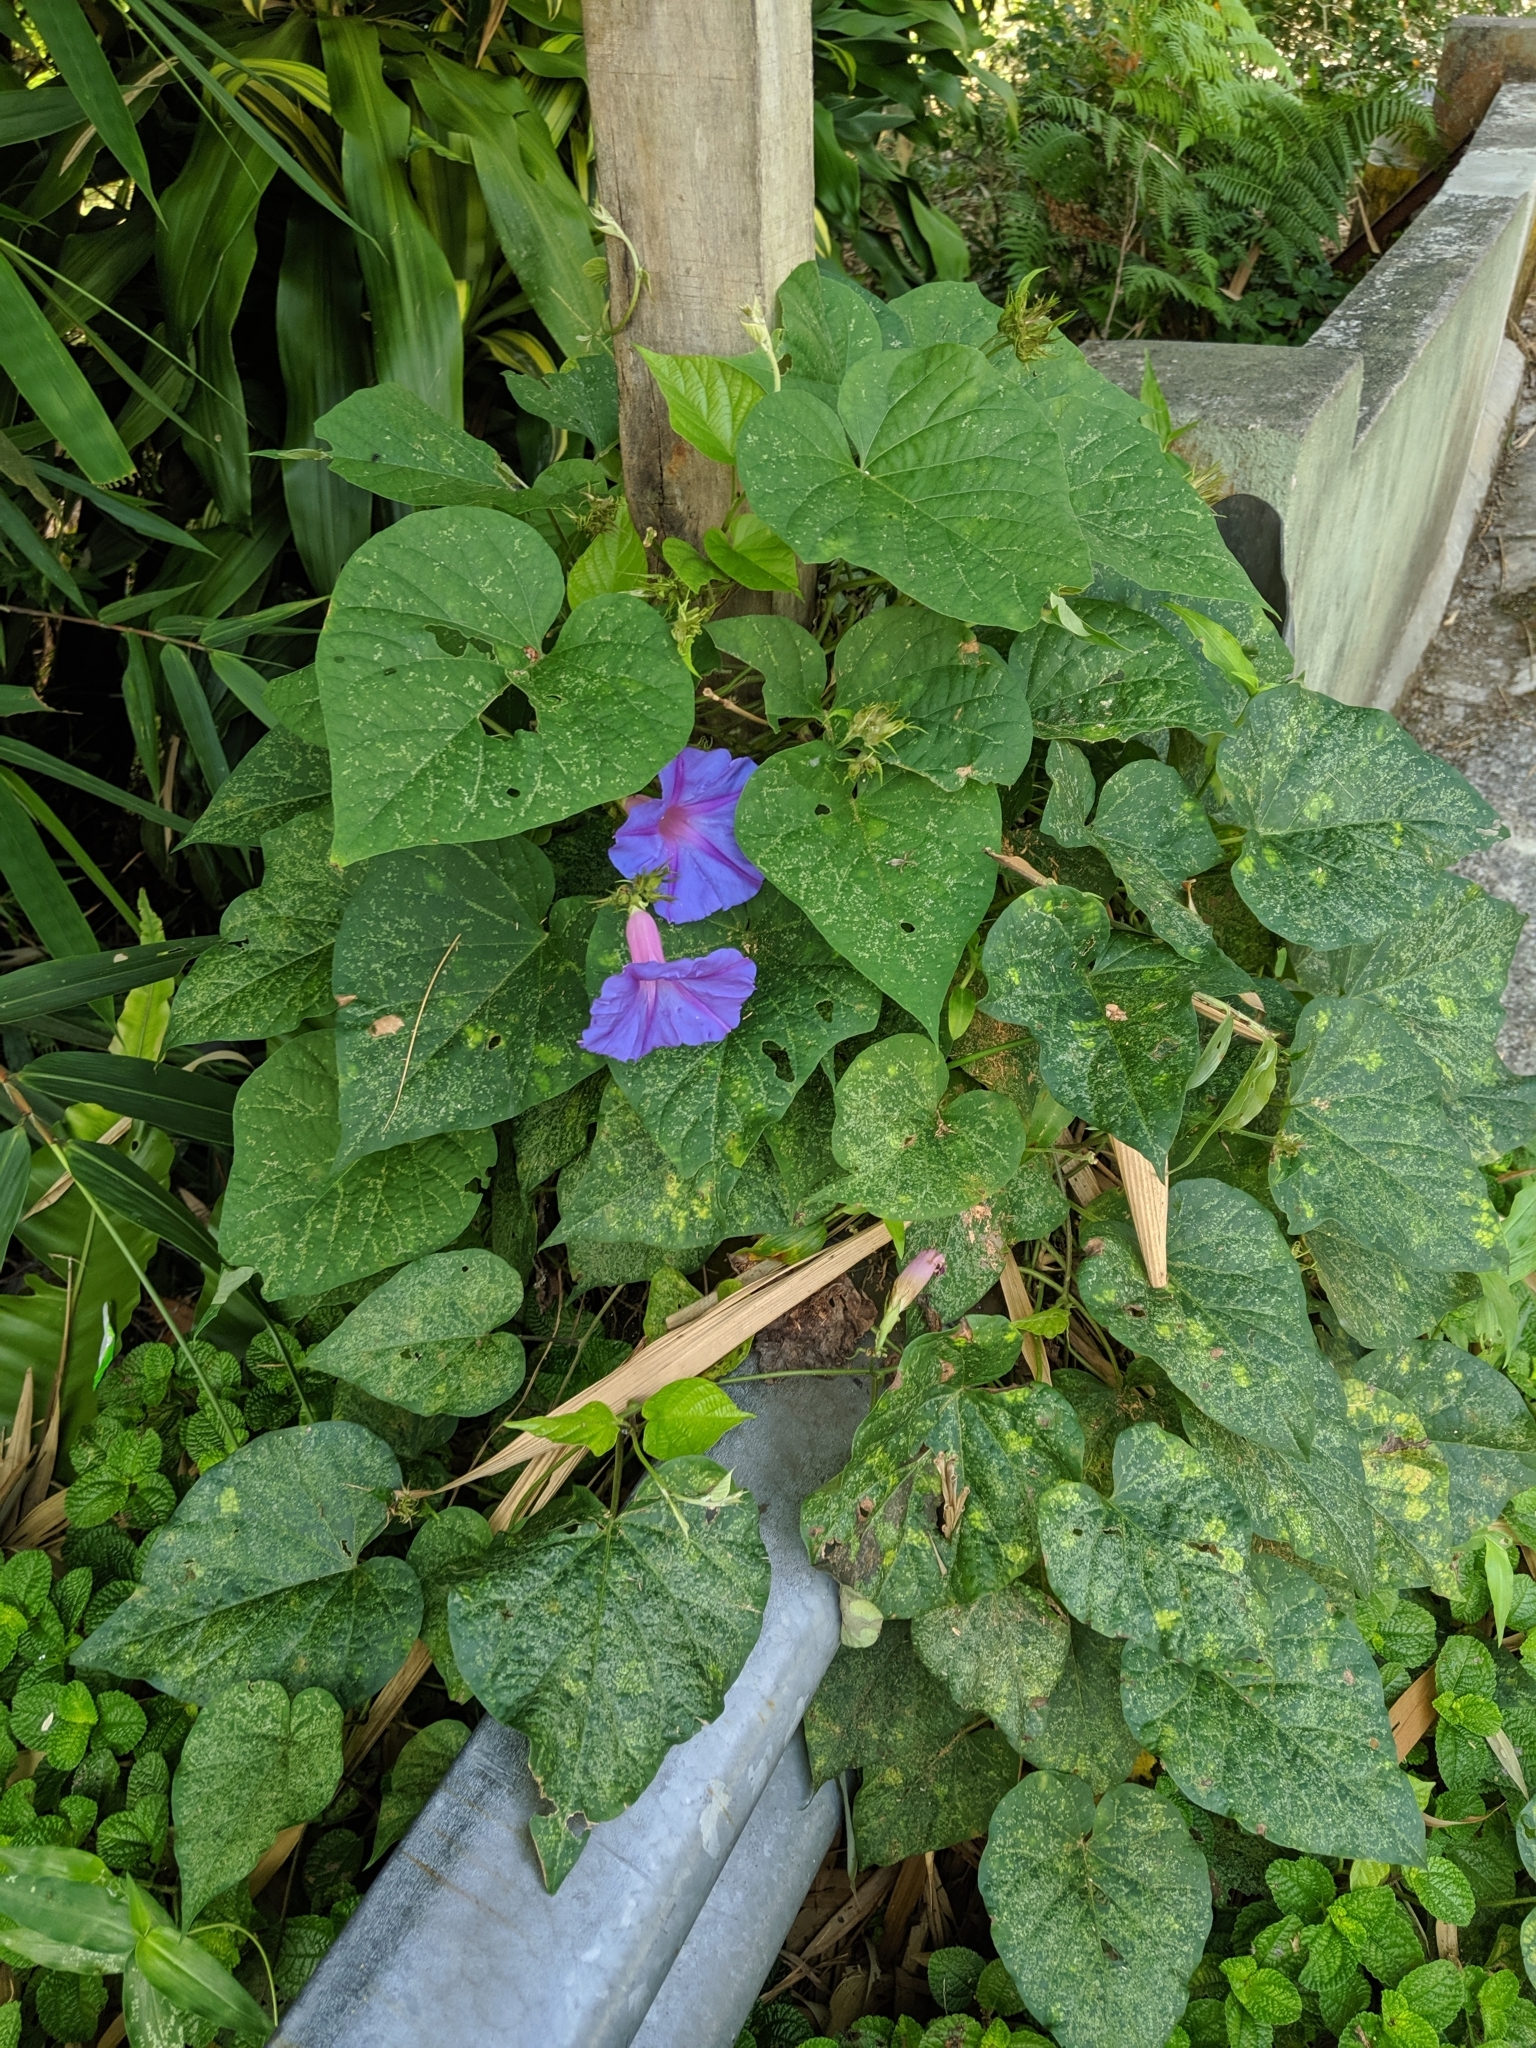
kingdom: Plantae
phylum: Tracheophyta
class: Magnoliopsida
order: Solanales
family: Convolvulaceae
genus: Ipomoea
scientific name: Ipomoea indica
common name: Blue dawnflower
